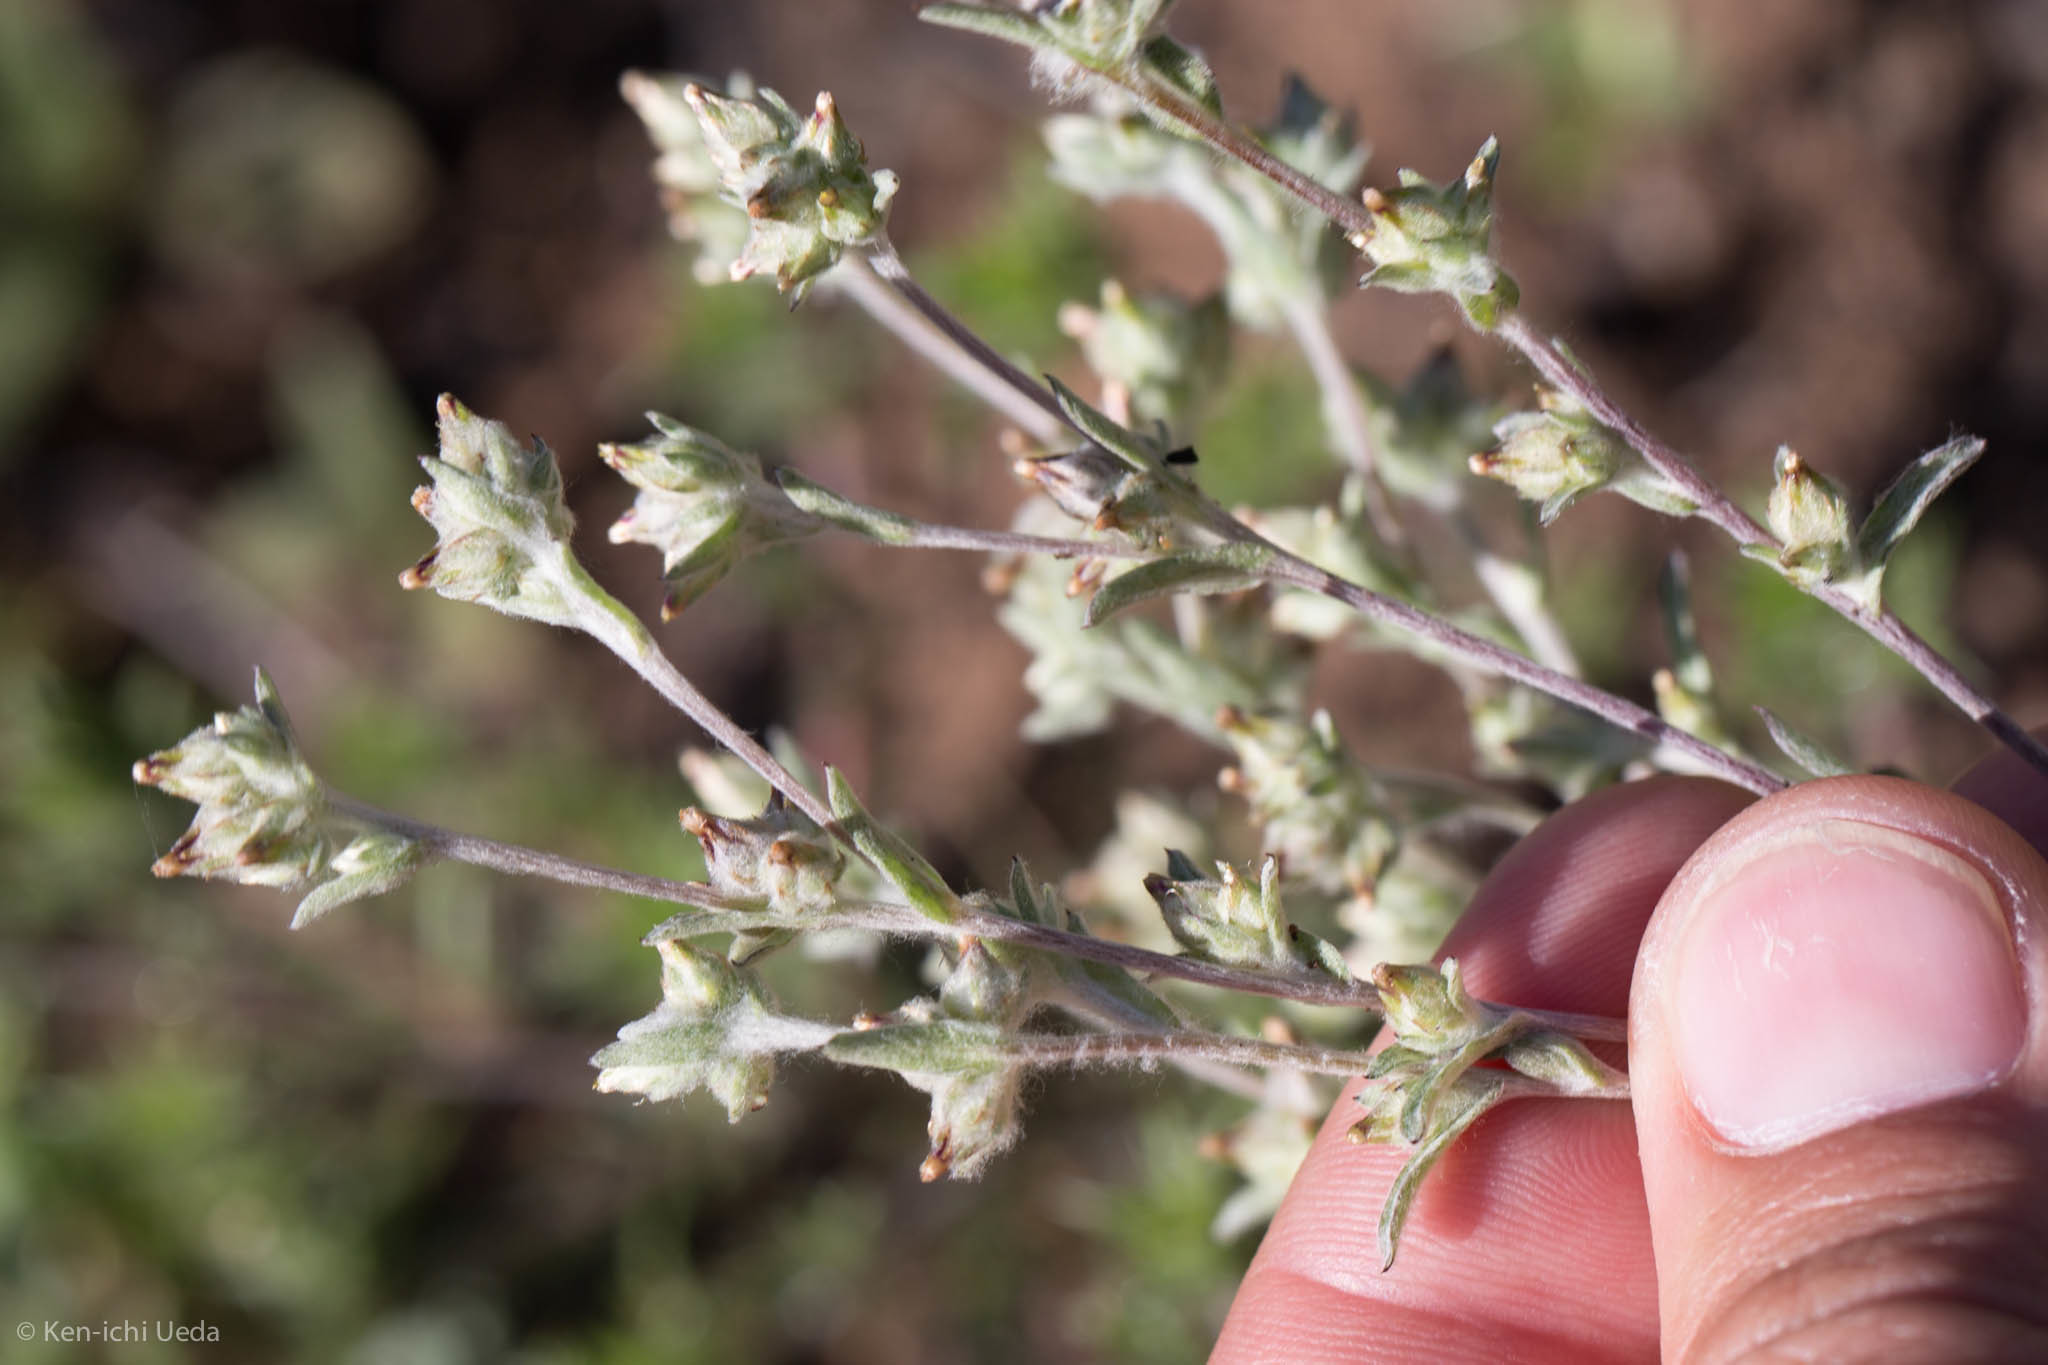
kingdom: Plantae
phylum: Tracheophyta
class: Magnoliopsida
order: Asterales
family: Asteraceae
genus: Logfia
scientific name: Logfia californica
